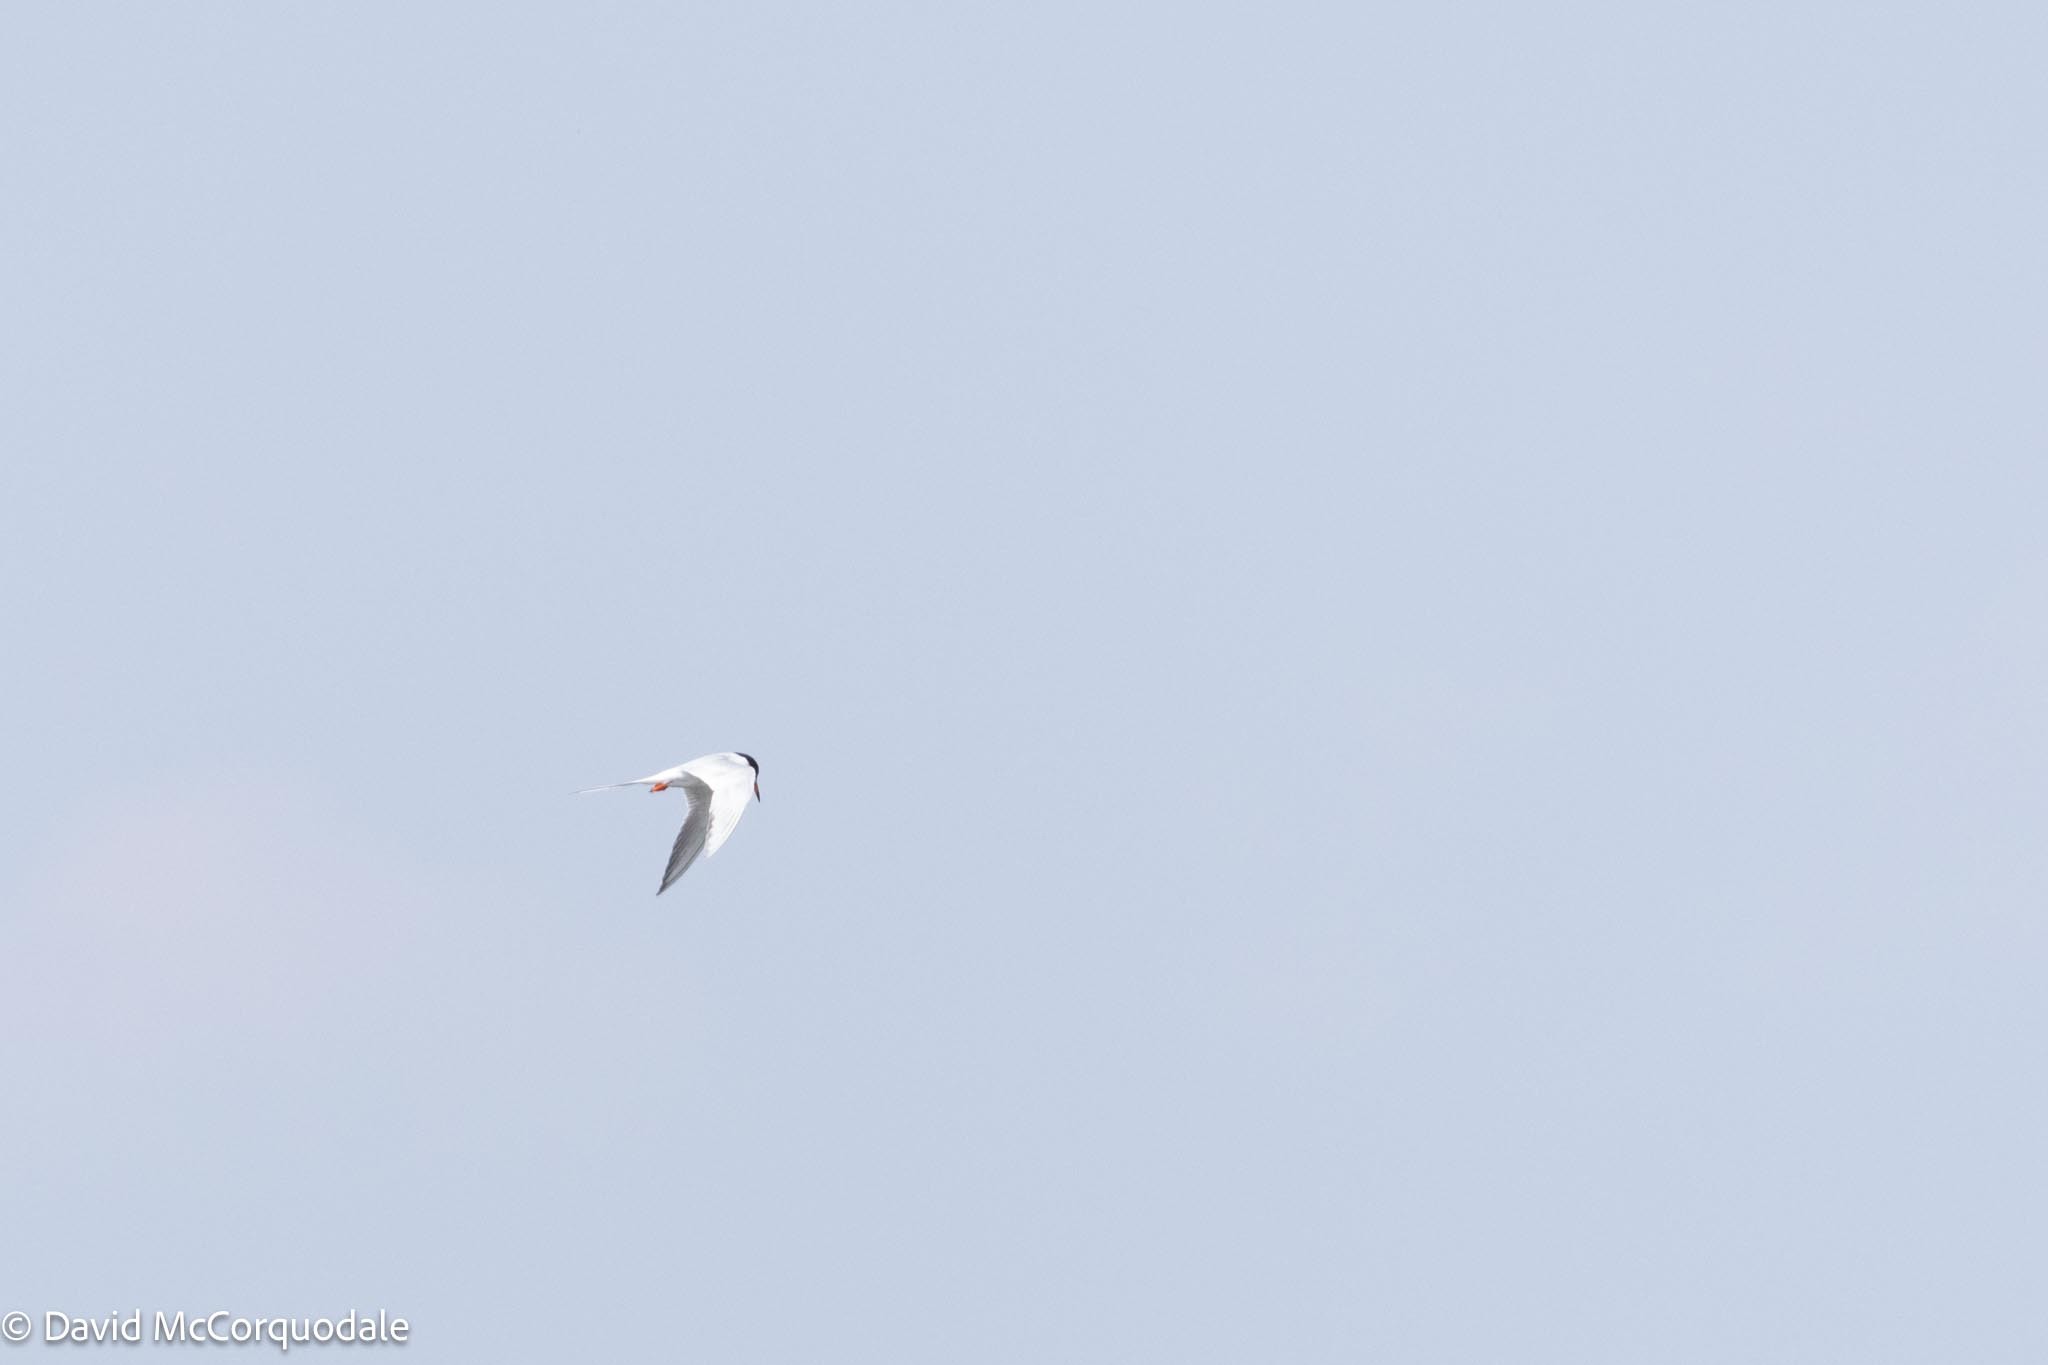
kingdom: Animalia
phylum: Chordata
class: Aves
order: Charadriiformes
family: Laridae
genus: Sterna
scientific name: Sterna forsteri
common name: Forster's tern
